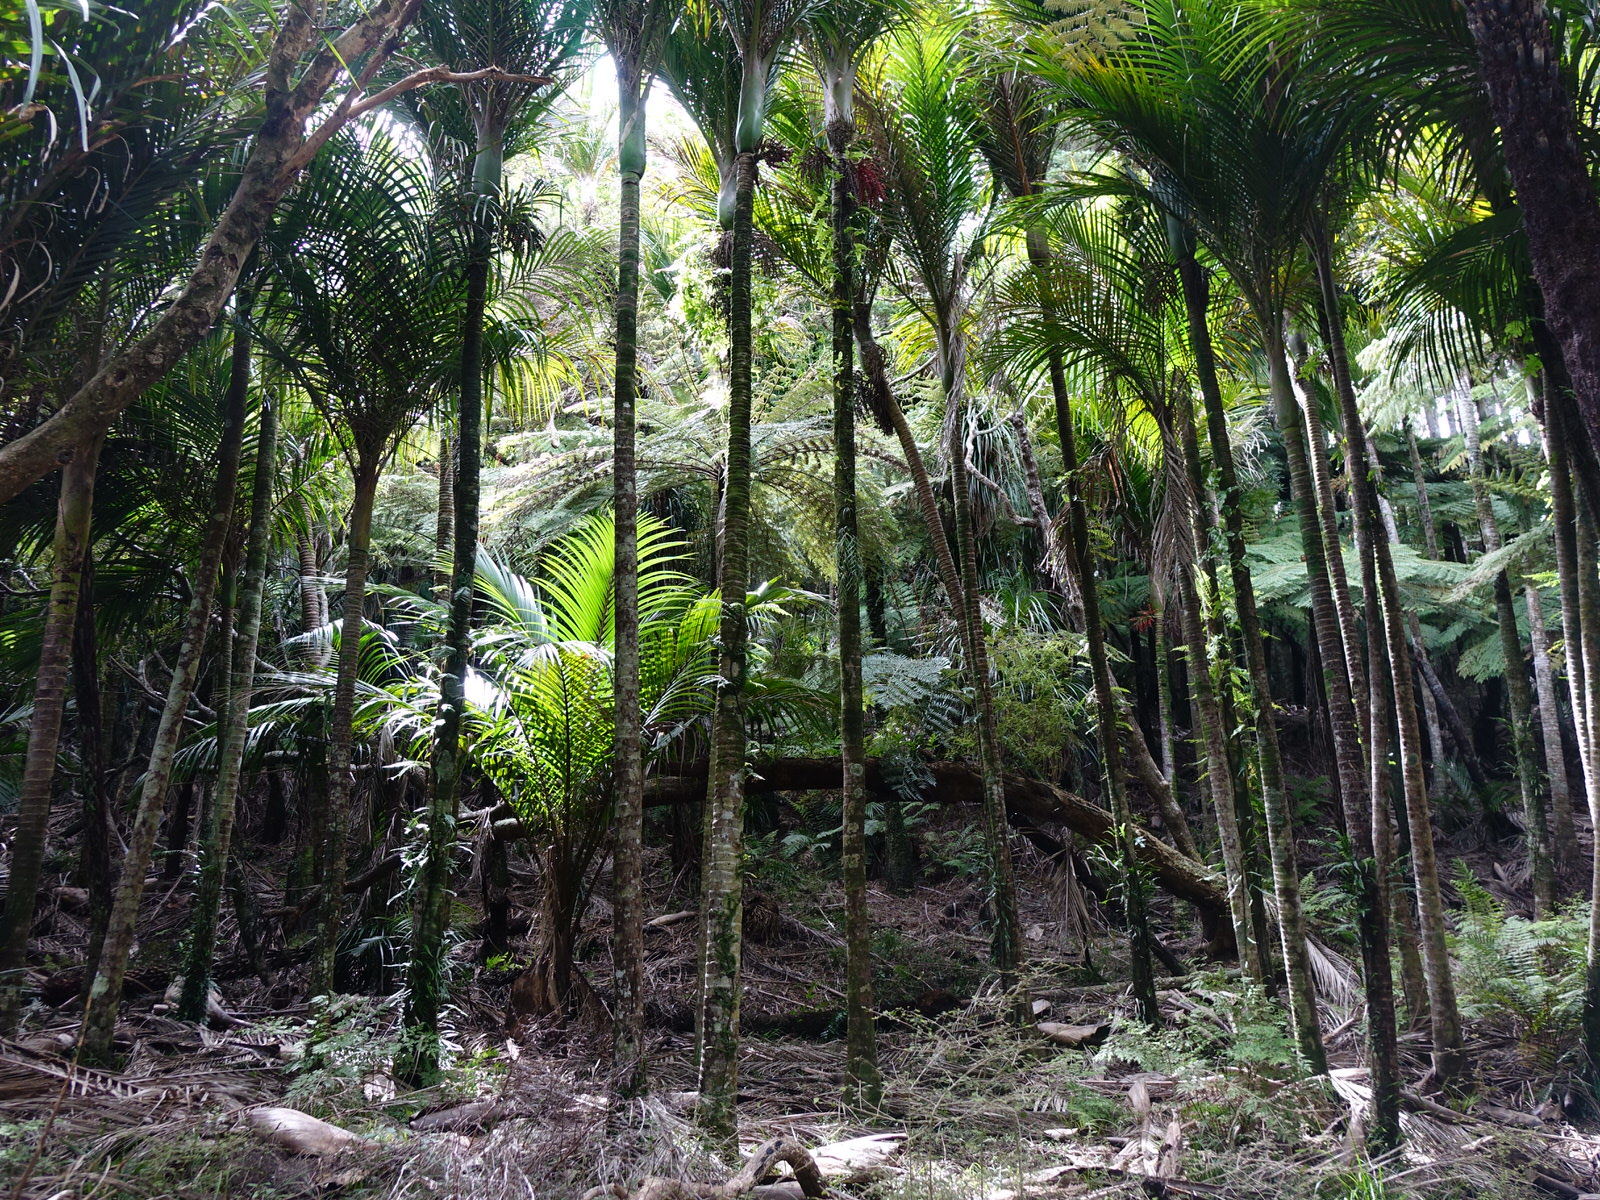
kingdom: Plantae
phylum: Tracheophyta
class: Liliopsida
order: Arecales
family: Arecaceae
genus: Rhopalostylis
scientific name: Rhopalostylis sapida
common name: Feather-duster palm
